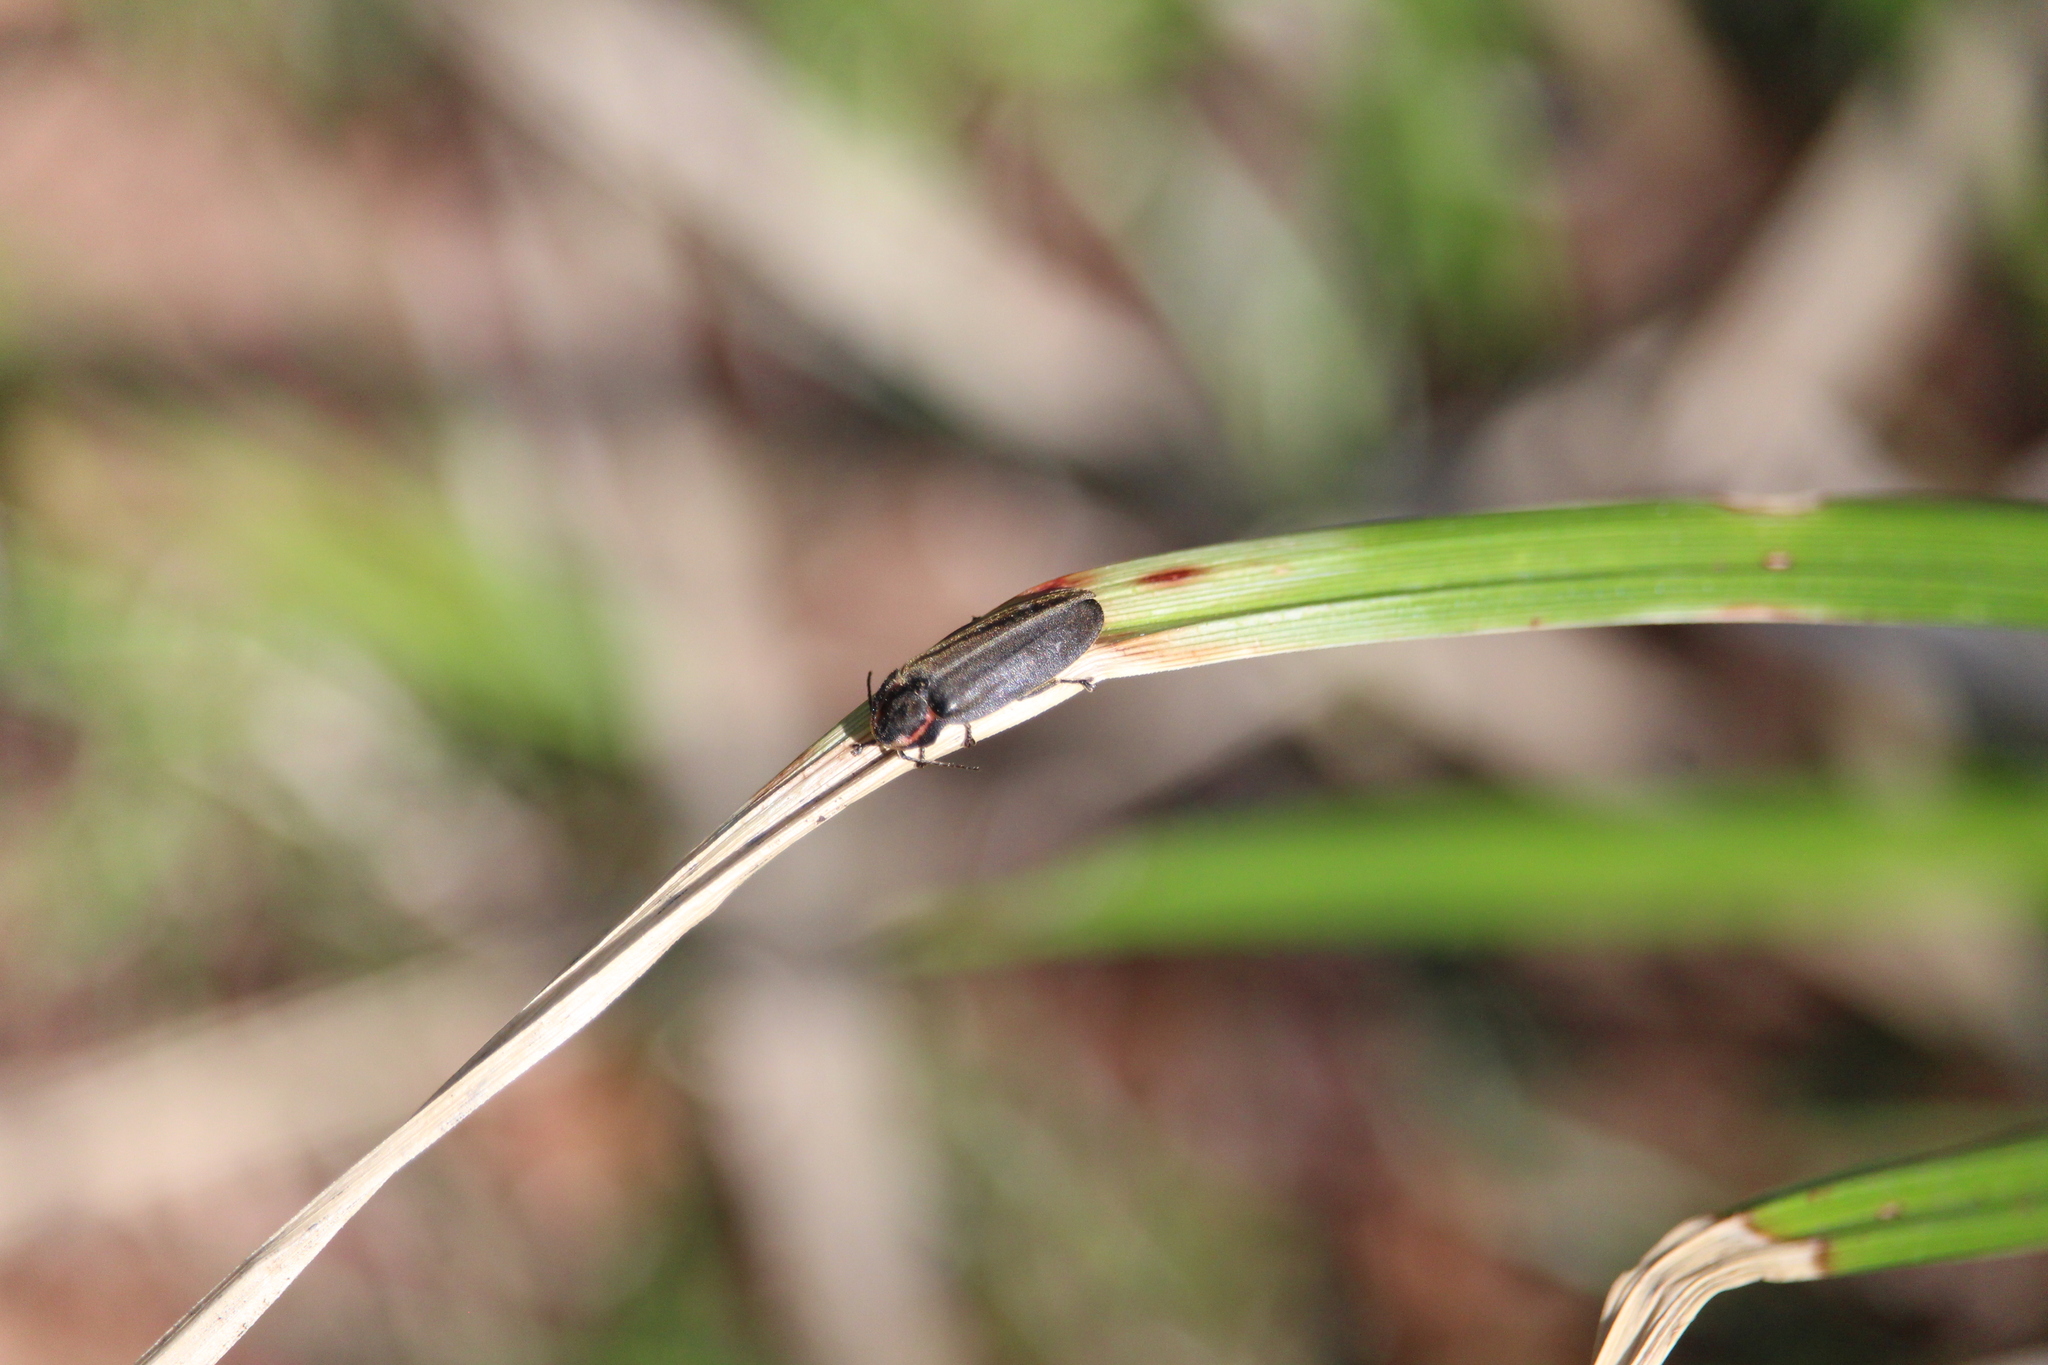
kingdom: Animalia
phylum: Arthropoda
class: Insecta
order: Coleoptera
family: Lampyridae
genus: Photinus
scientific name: Photinus corrusca
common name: Winter firefly
